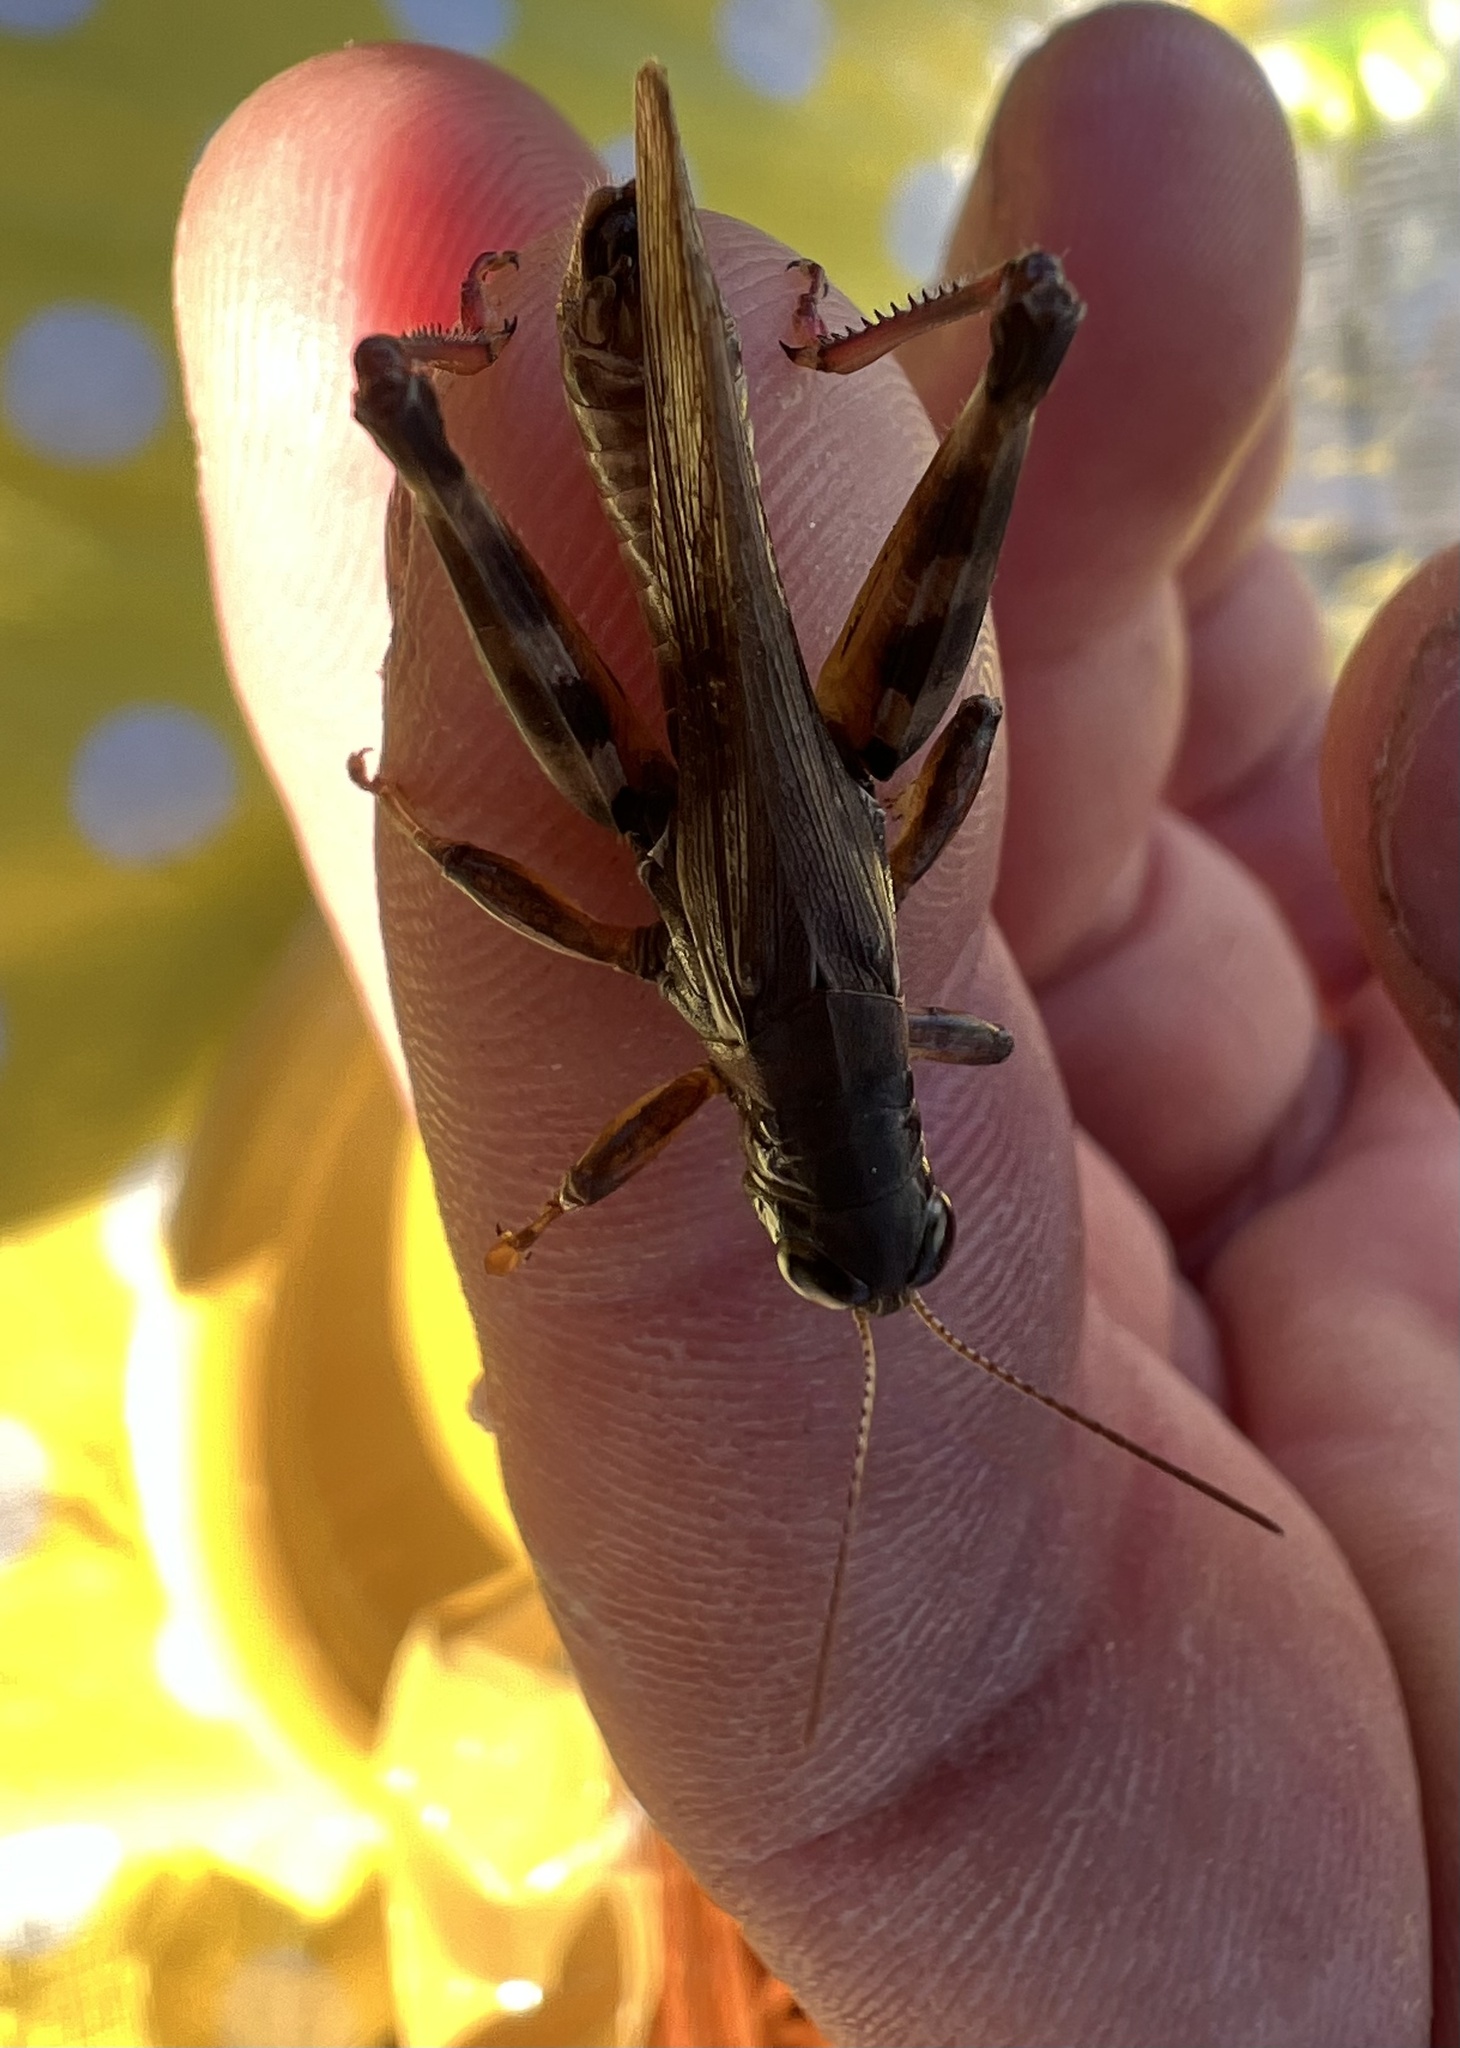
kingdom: Animalia
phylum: Arthropoda
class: Insecta
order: Orthoptera
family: Acrididae
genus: Melanoplus
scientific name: Melanoplus sanguinipes
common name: Migratory grasshopper
